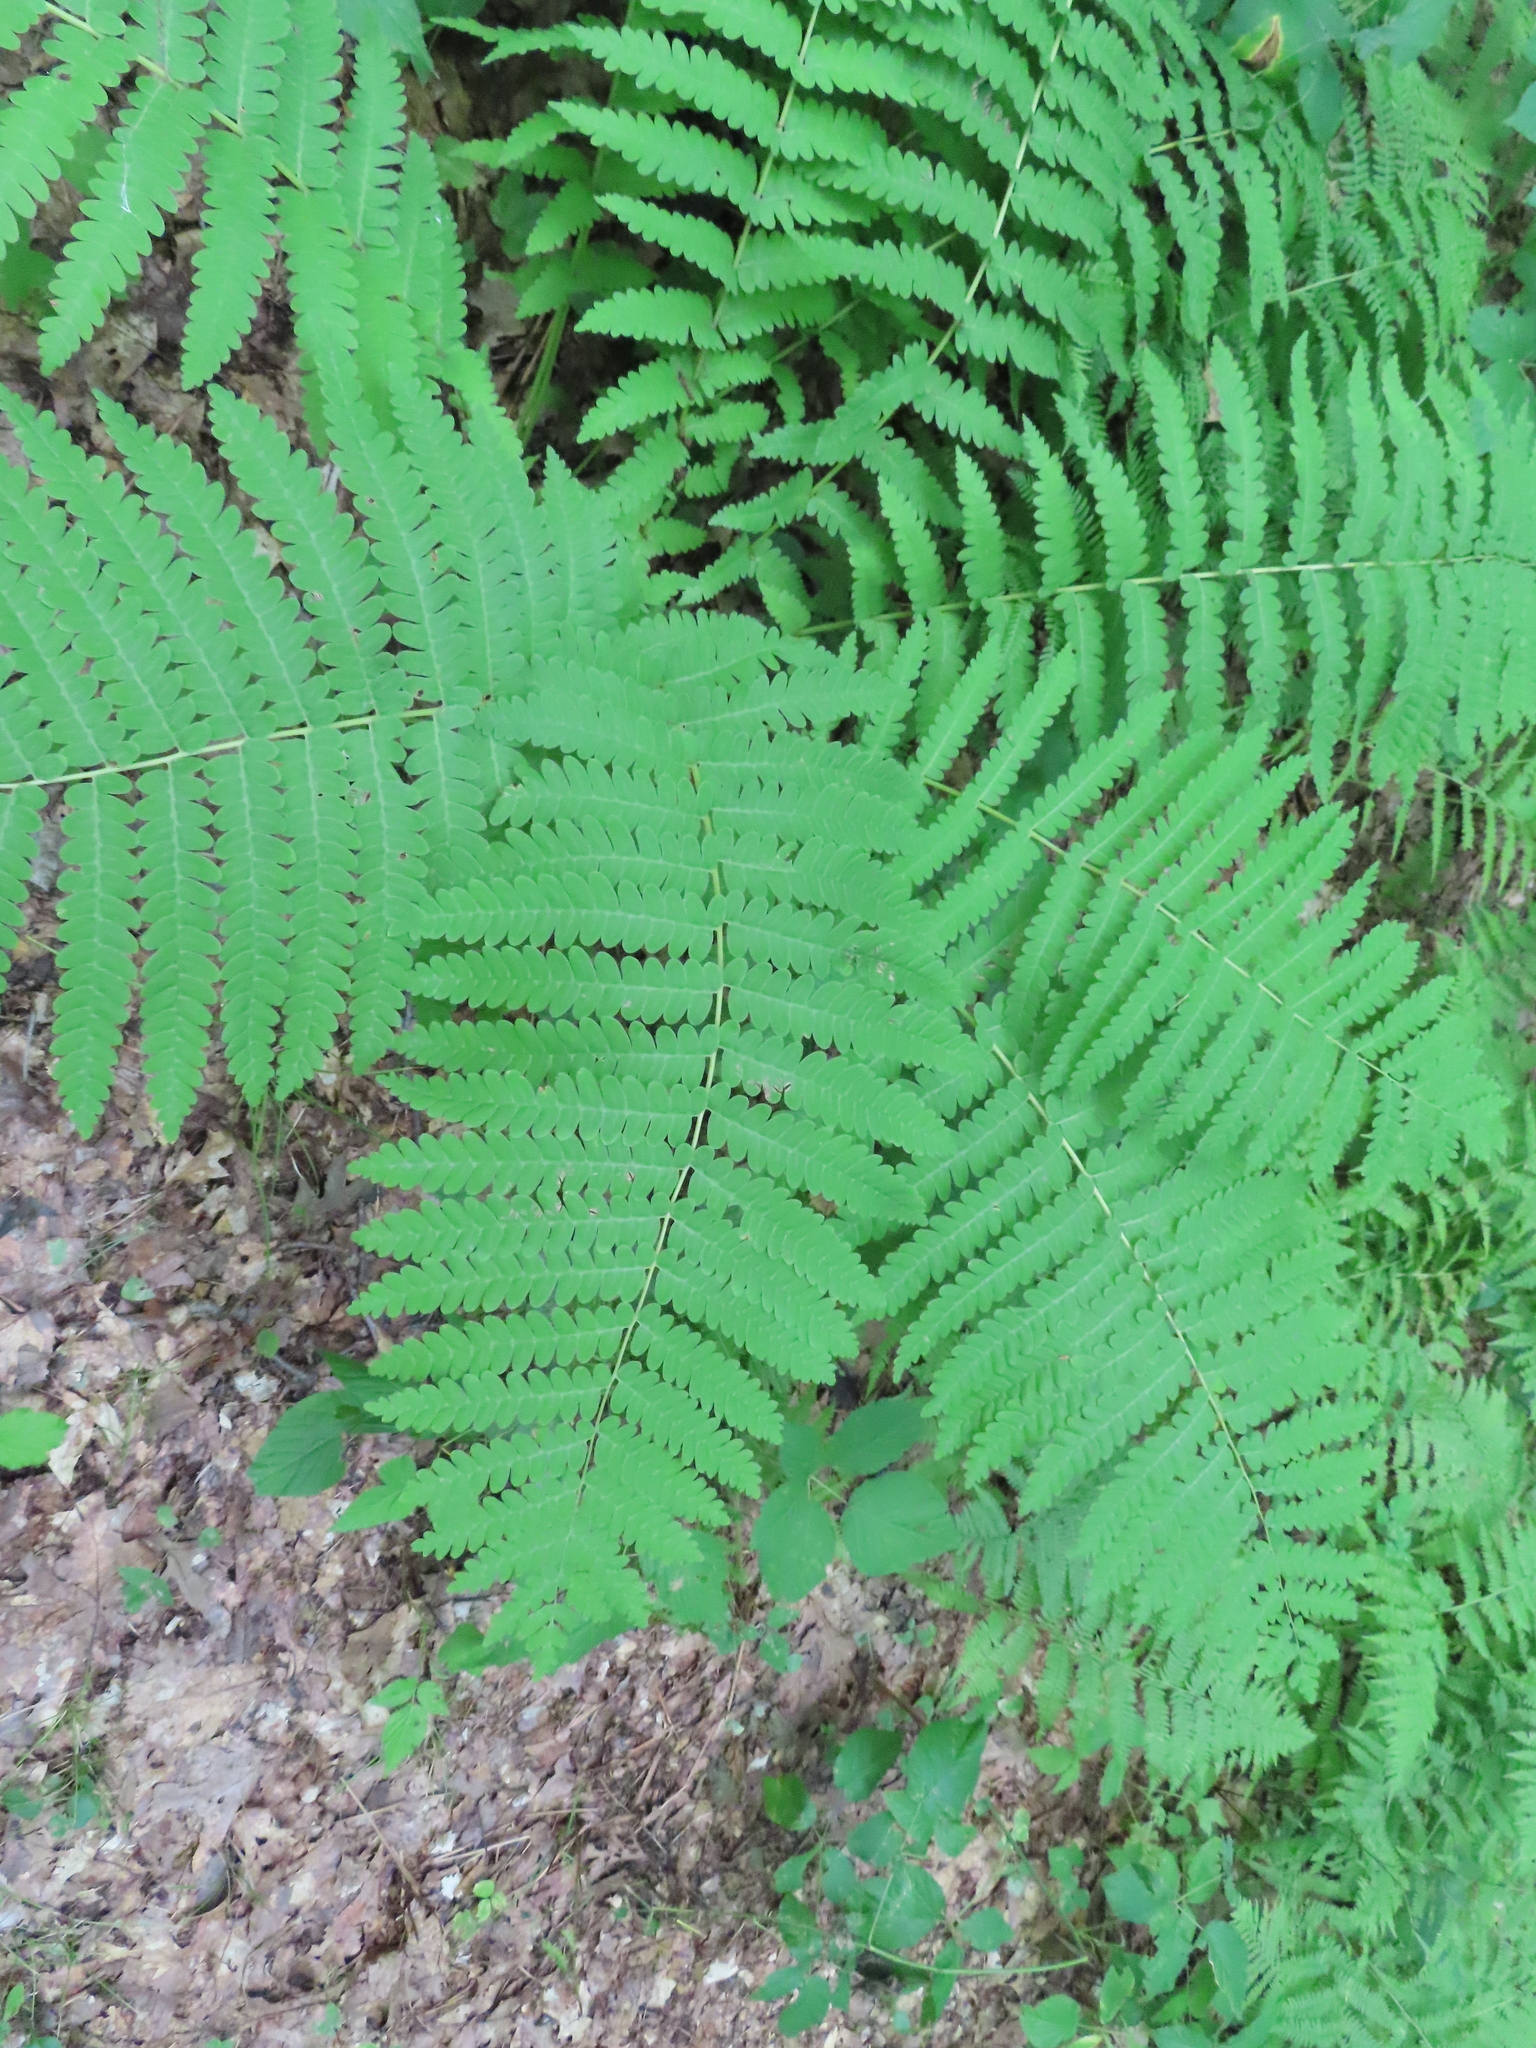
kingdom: Plantae
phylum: Tracheophyta
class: Polypodiopsida
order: Osmundales
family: Osmundaceae
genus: Claytosmunda
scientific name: Claytosmunda claytoniana
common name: Clayton's fern
